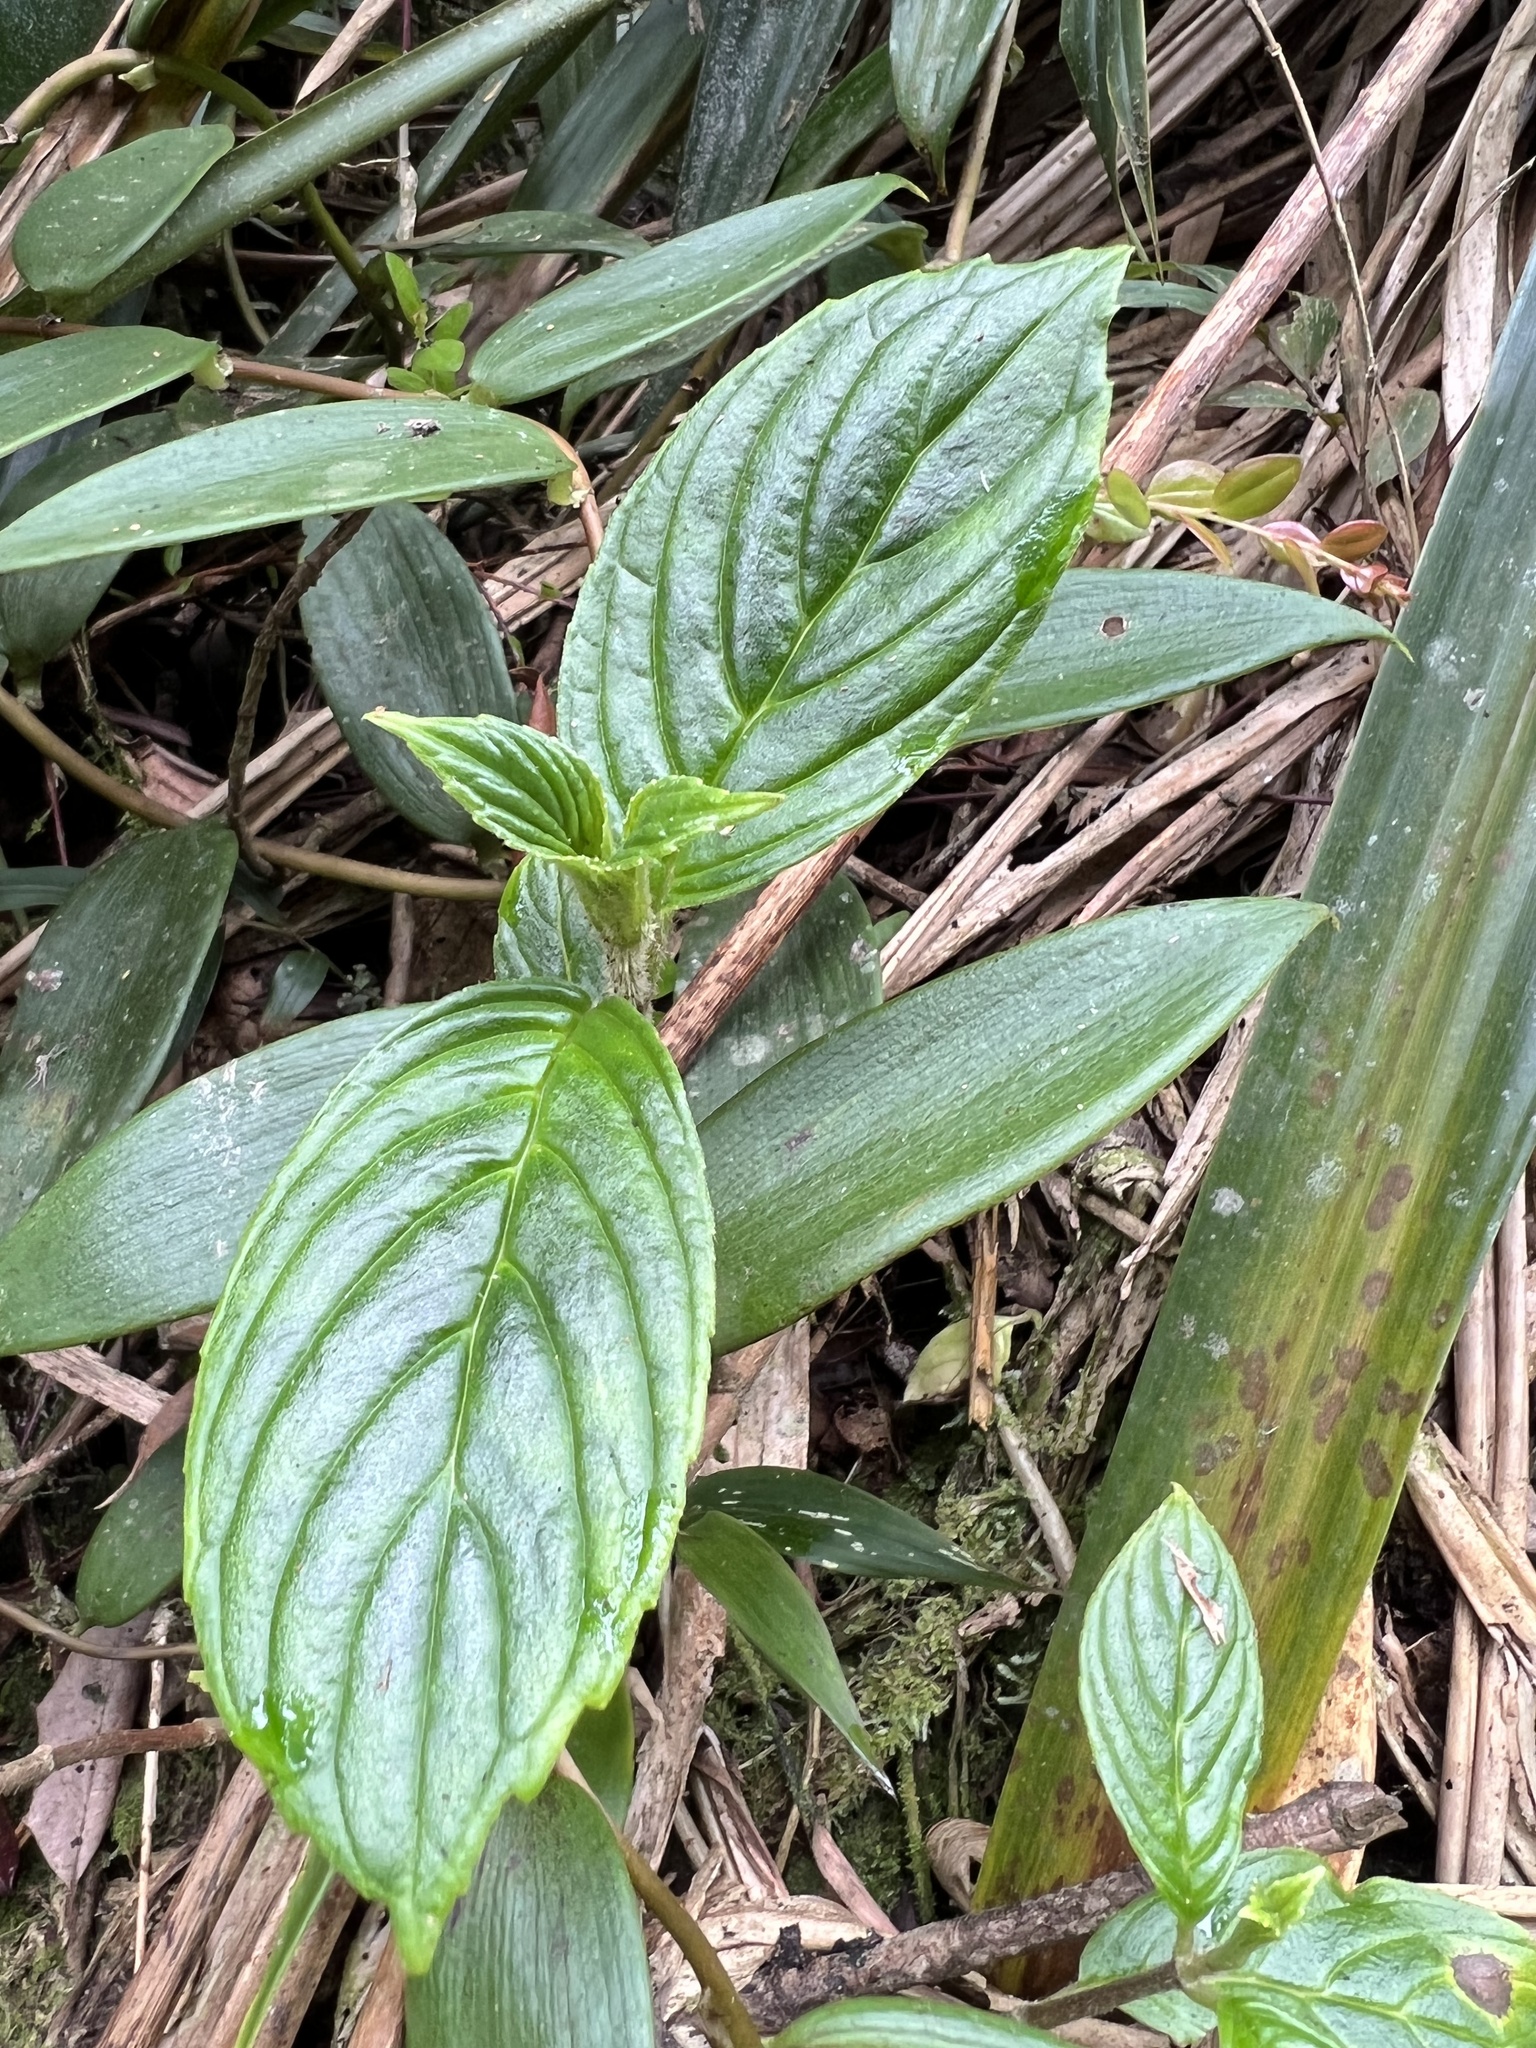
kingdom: Plantae
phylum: Tracheophyta
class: Magnoliopsida
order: Lamiales
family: Gesneriaceae
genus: Columnea
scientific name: Columnea strigosa
